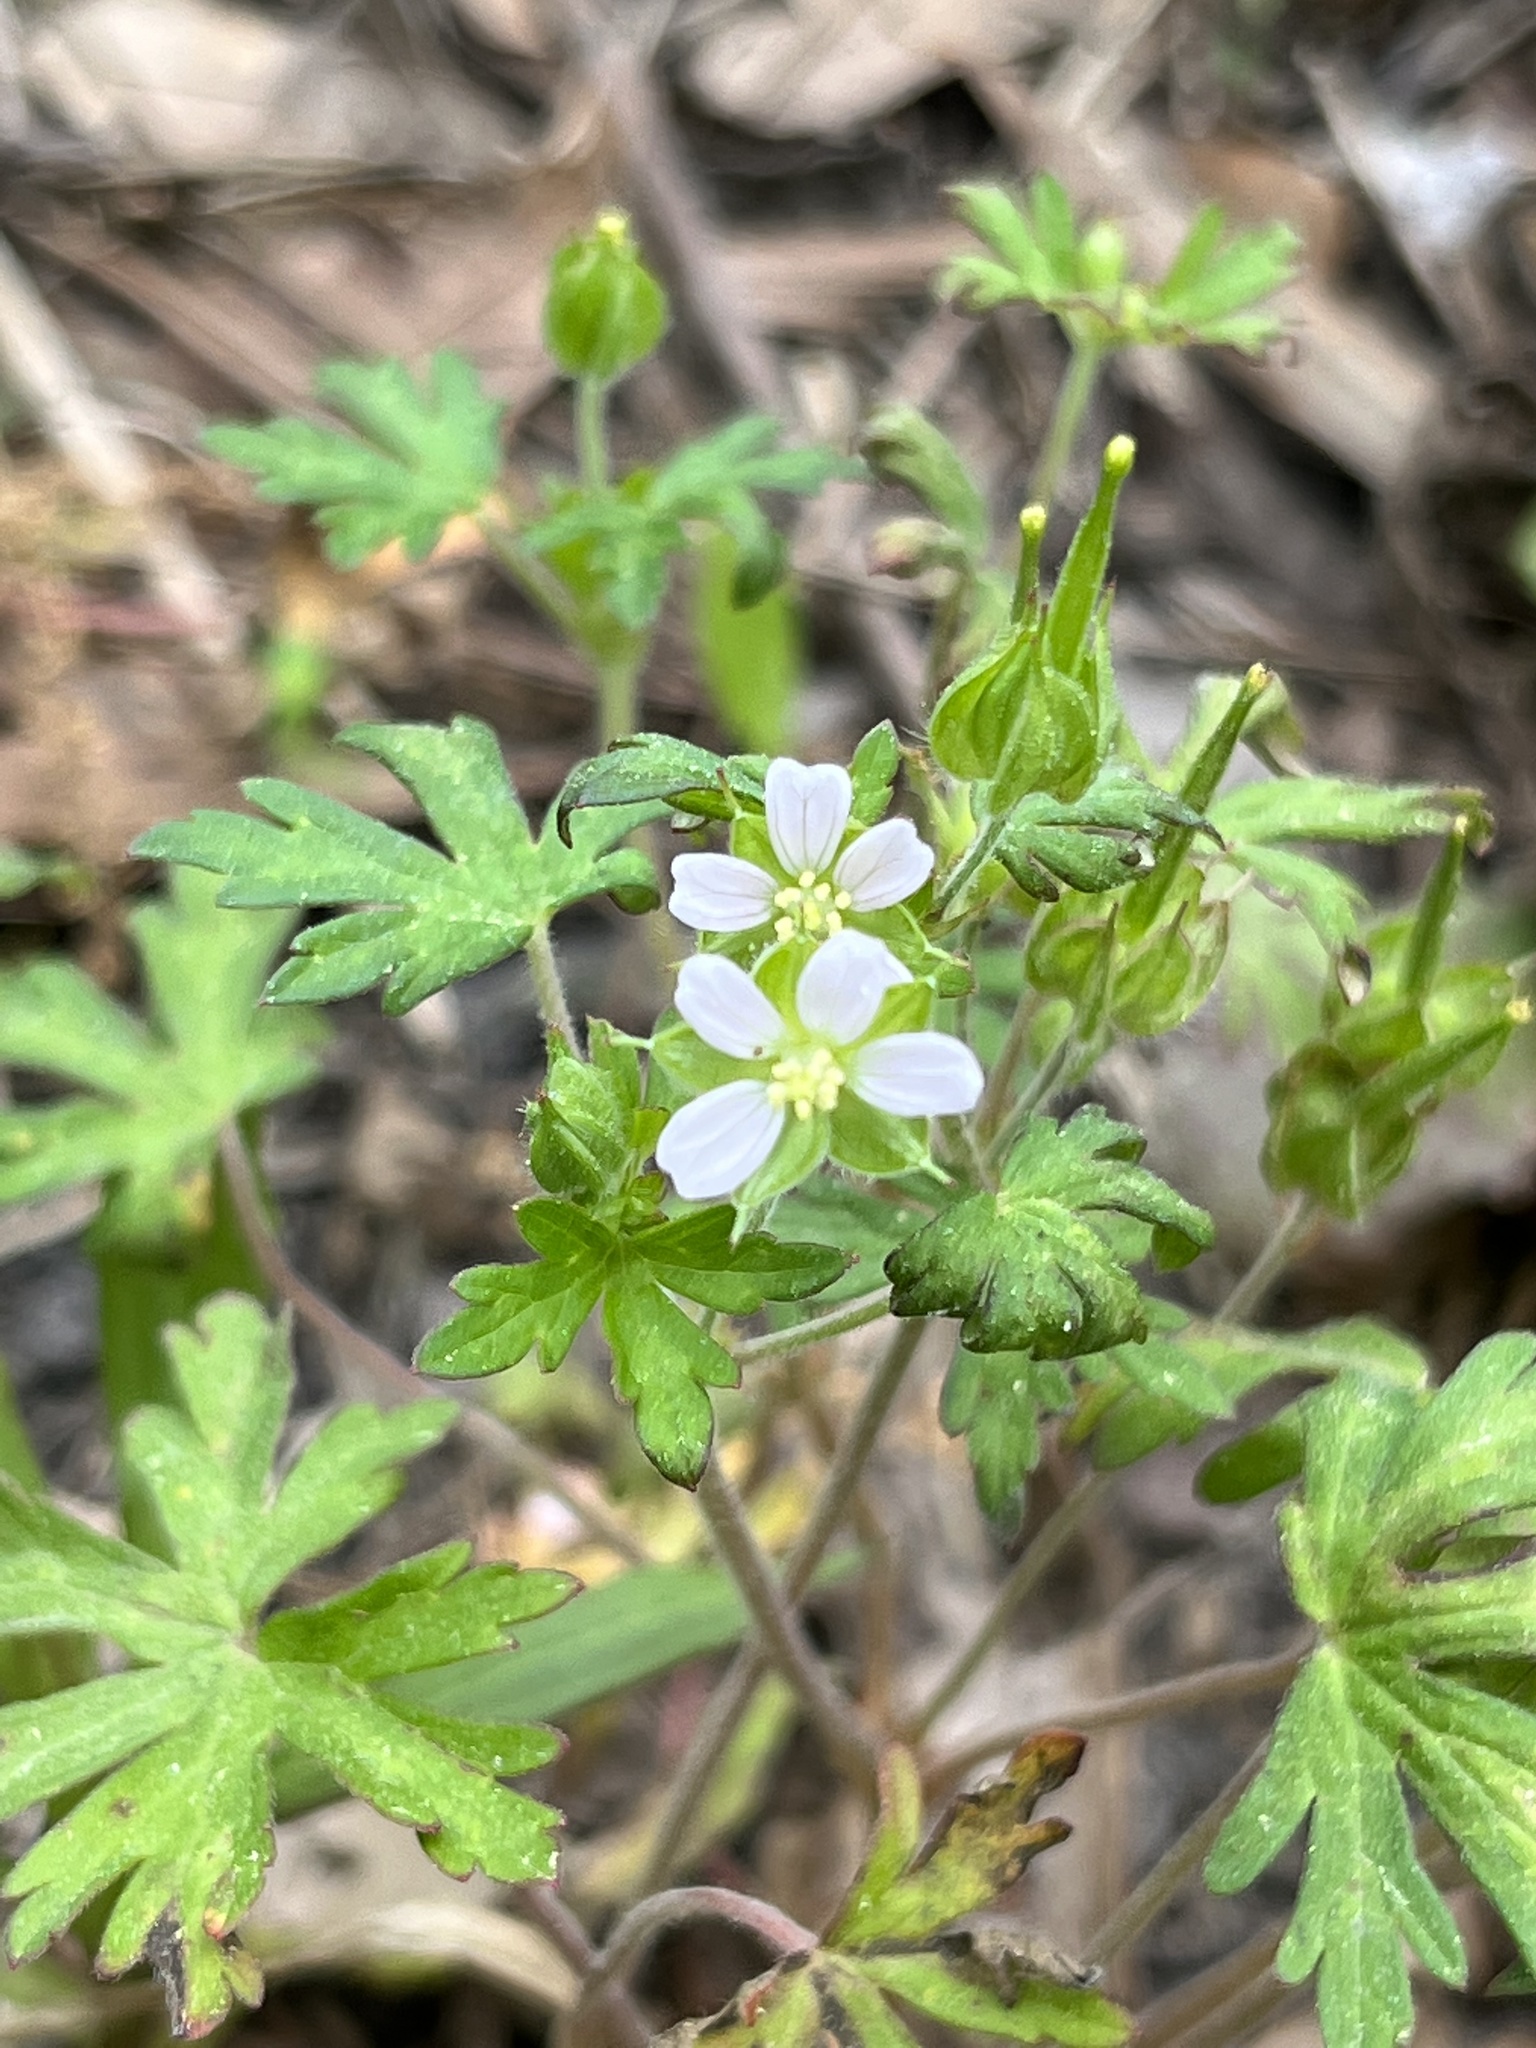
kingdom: Plantae
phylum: Tracheophyta
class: Magnoliopsida
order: Geraniales
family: Geraniaceae
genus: Geranium
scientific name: Geranium carolinianum
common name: Carolina crane's-bill
